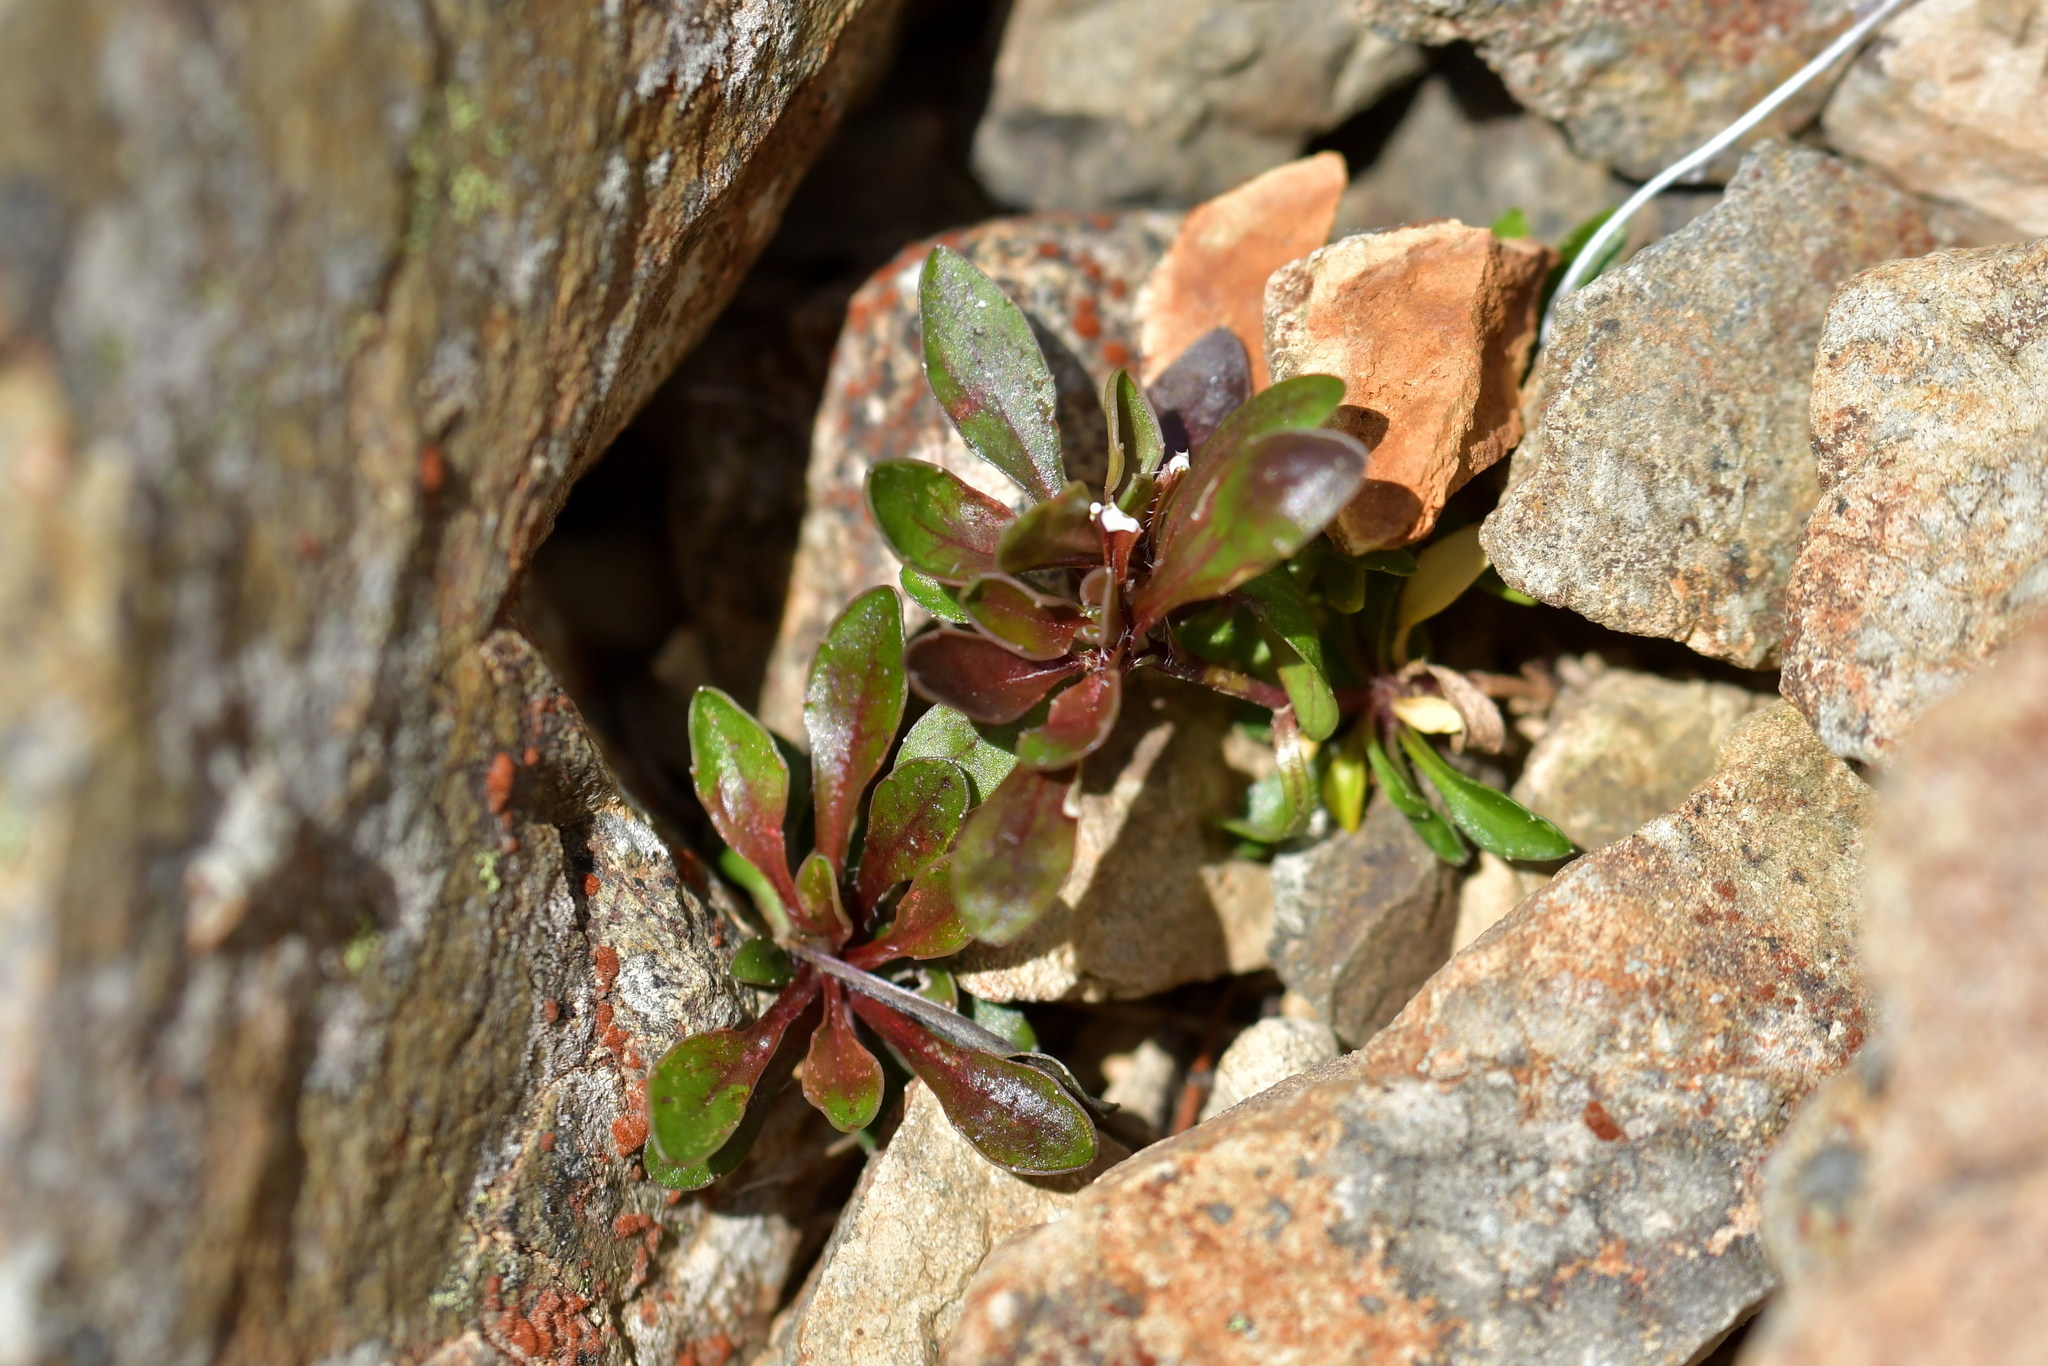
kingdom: Plantae
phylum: Tracheophyta
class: Magnoliopsida
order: Asterales
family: Campanulaceae
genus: Wahlenbergia
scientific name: Wahlenbergia albomarginata
